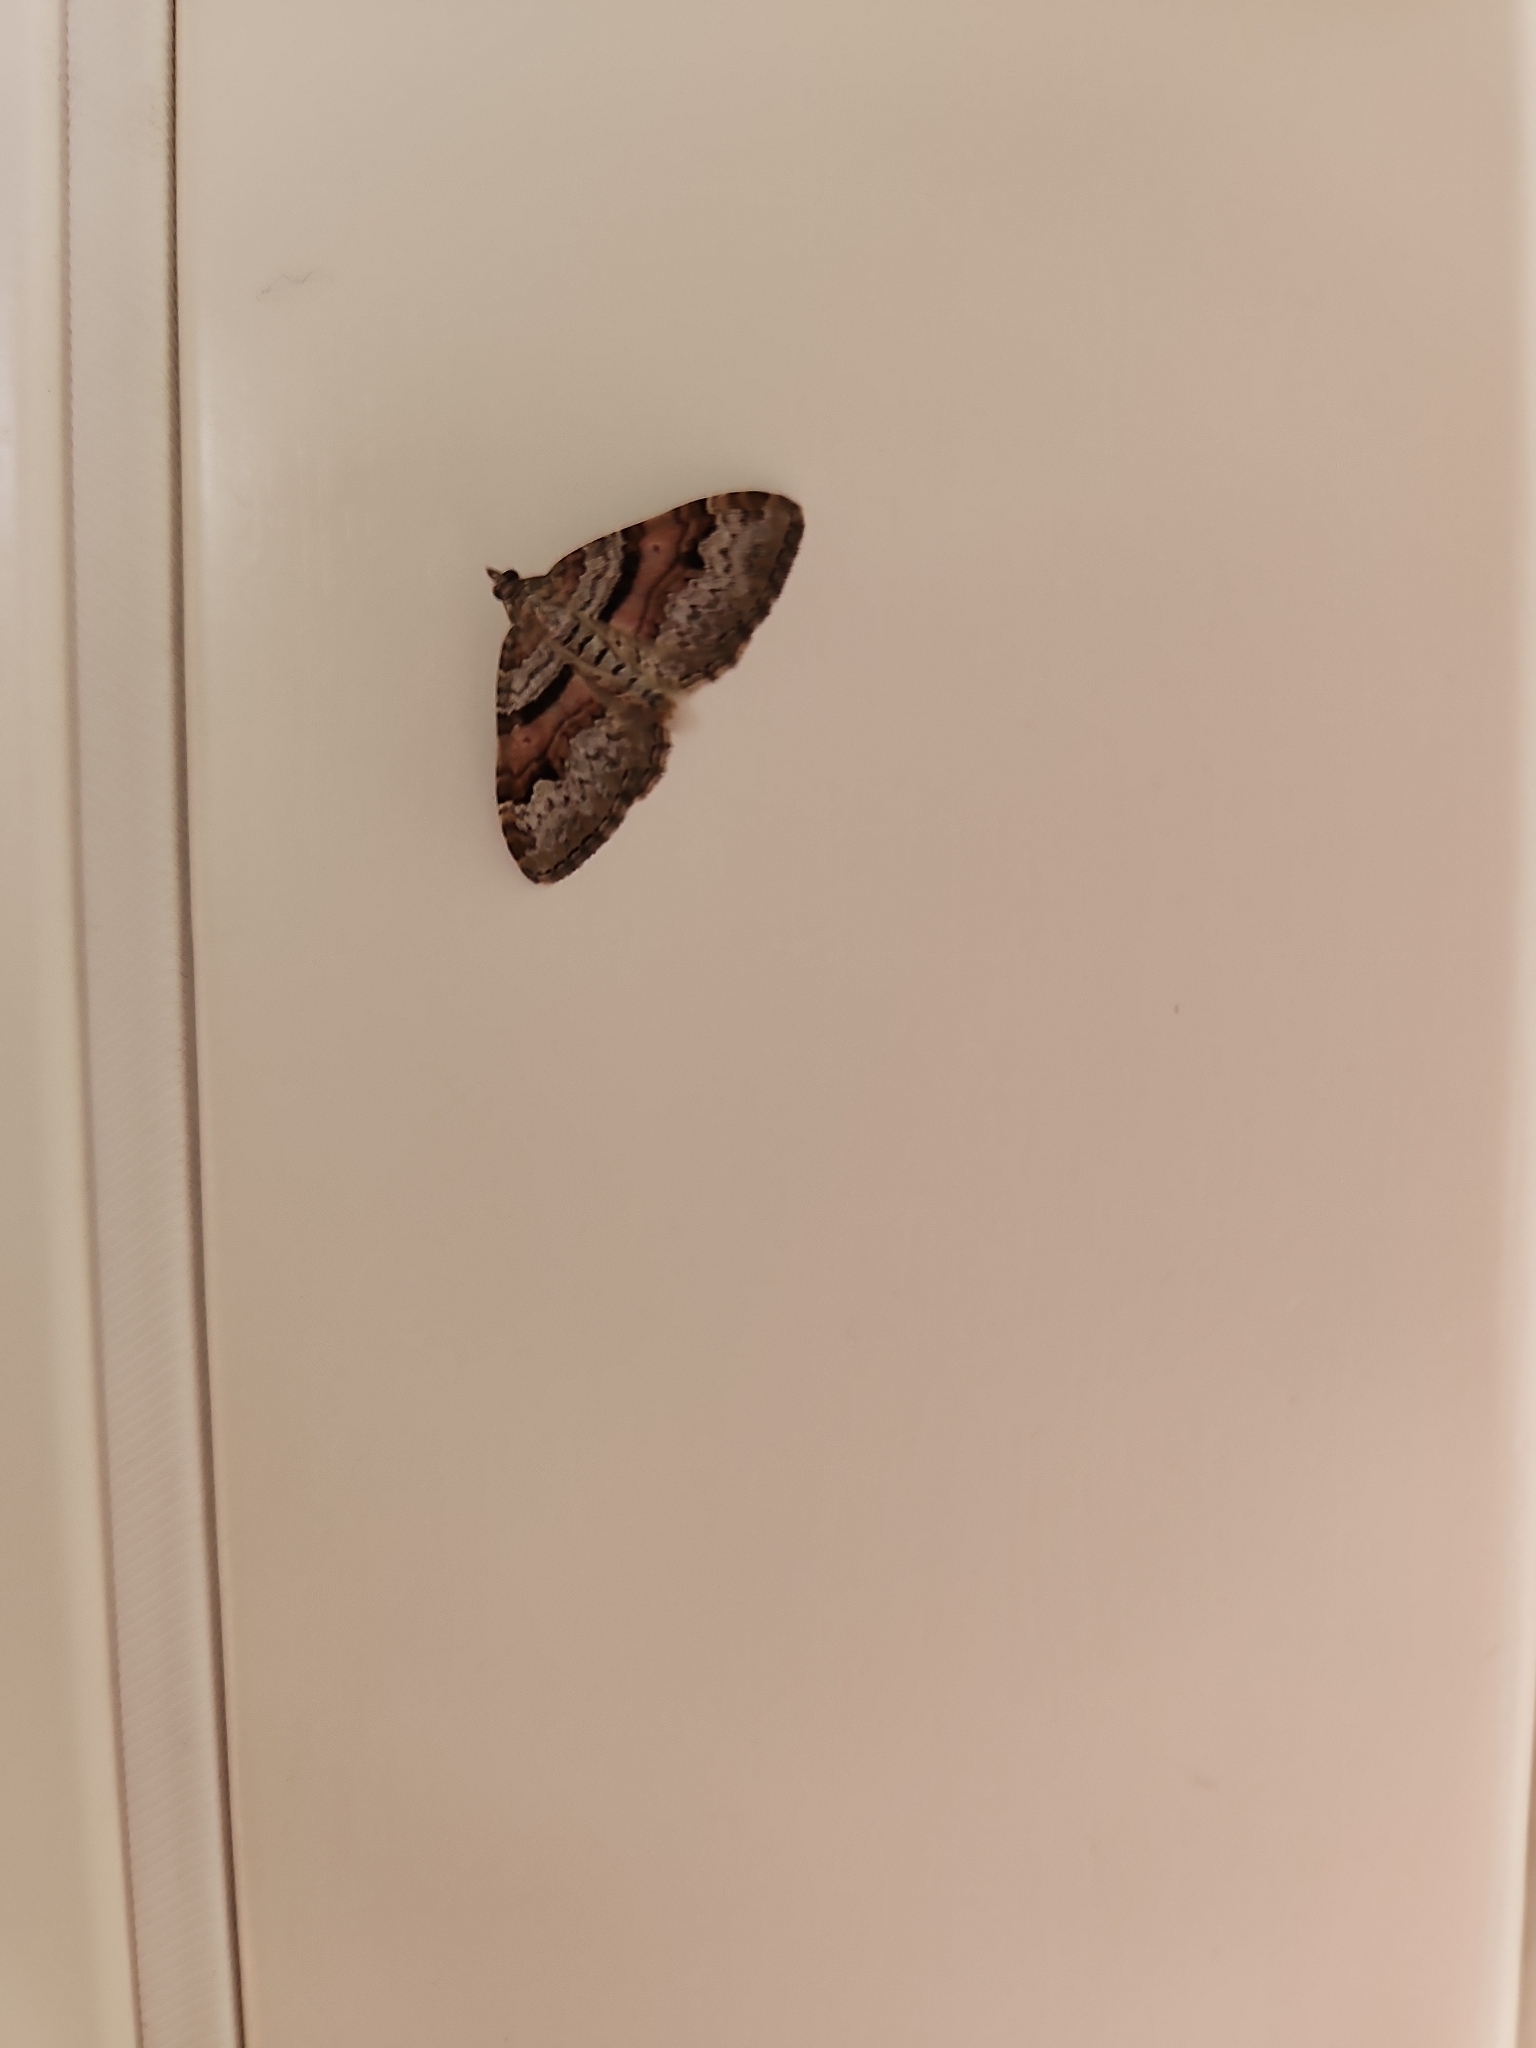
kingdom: Animalia
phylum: Arthropoda
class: Insecta
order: Lepidoptera
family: Geometridae
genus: Xanthorhoe
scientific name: Xanthorhoe designata
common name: Flame carpet
